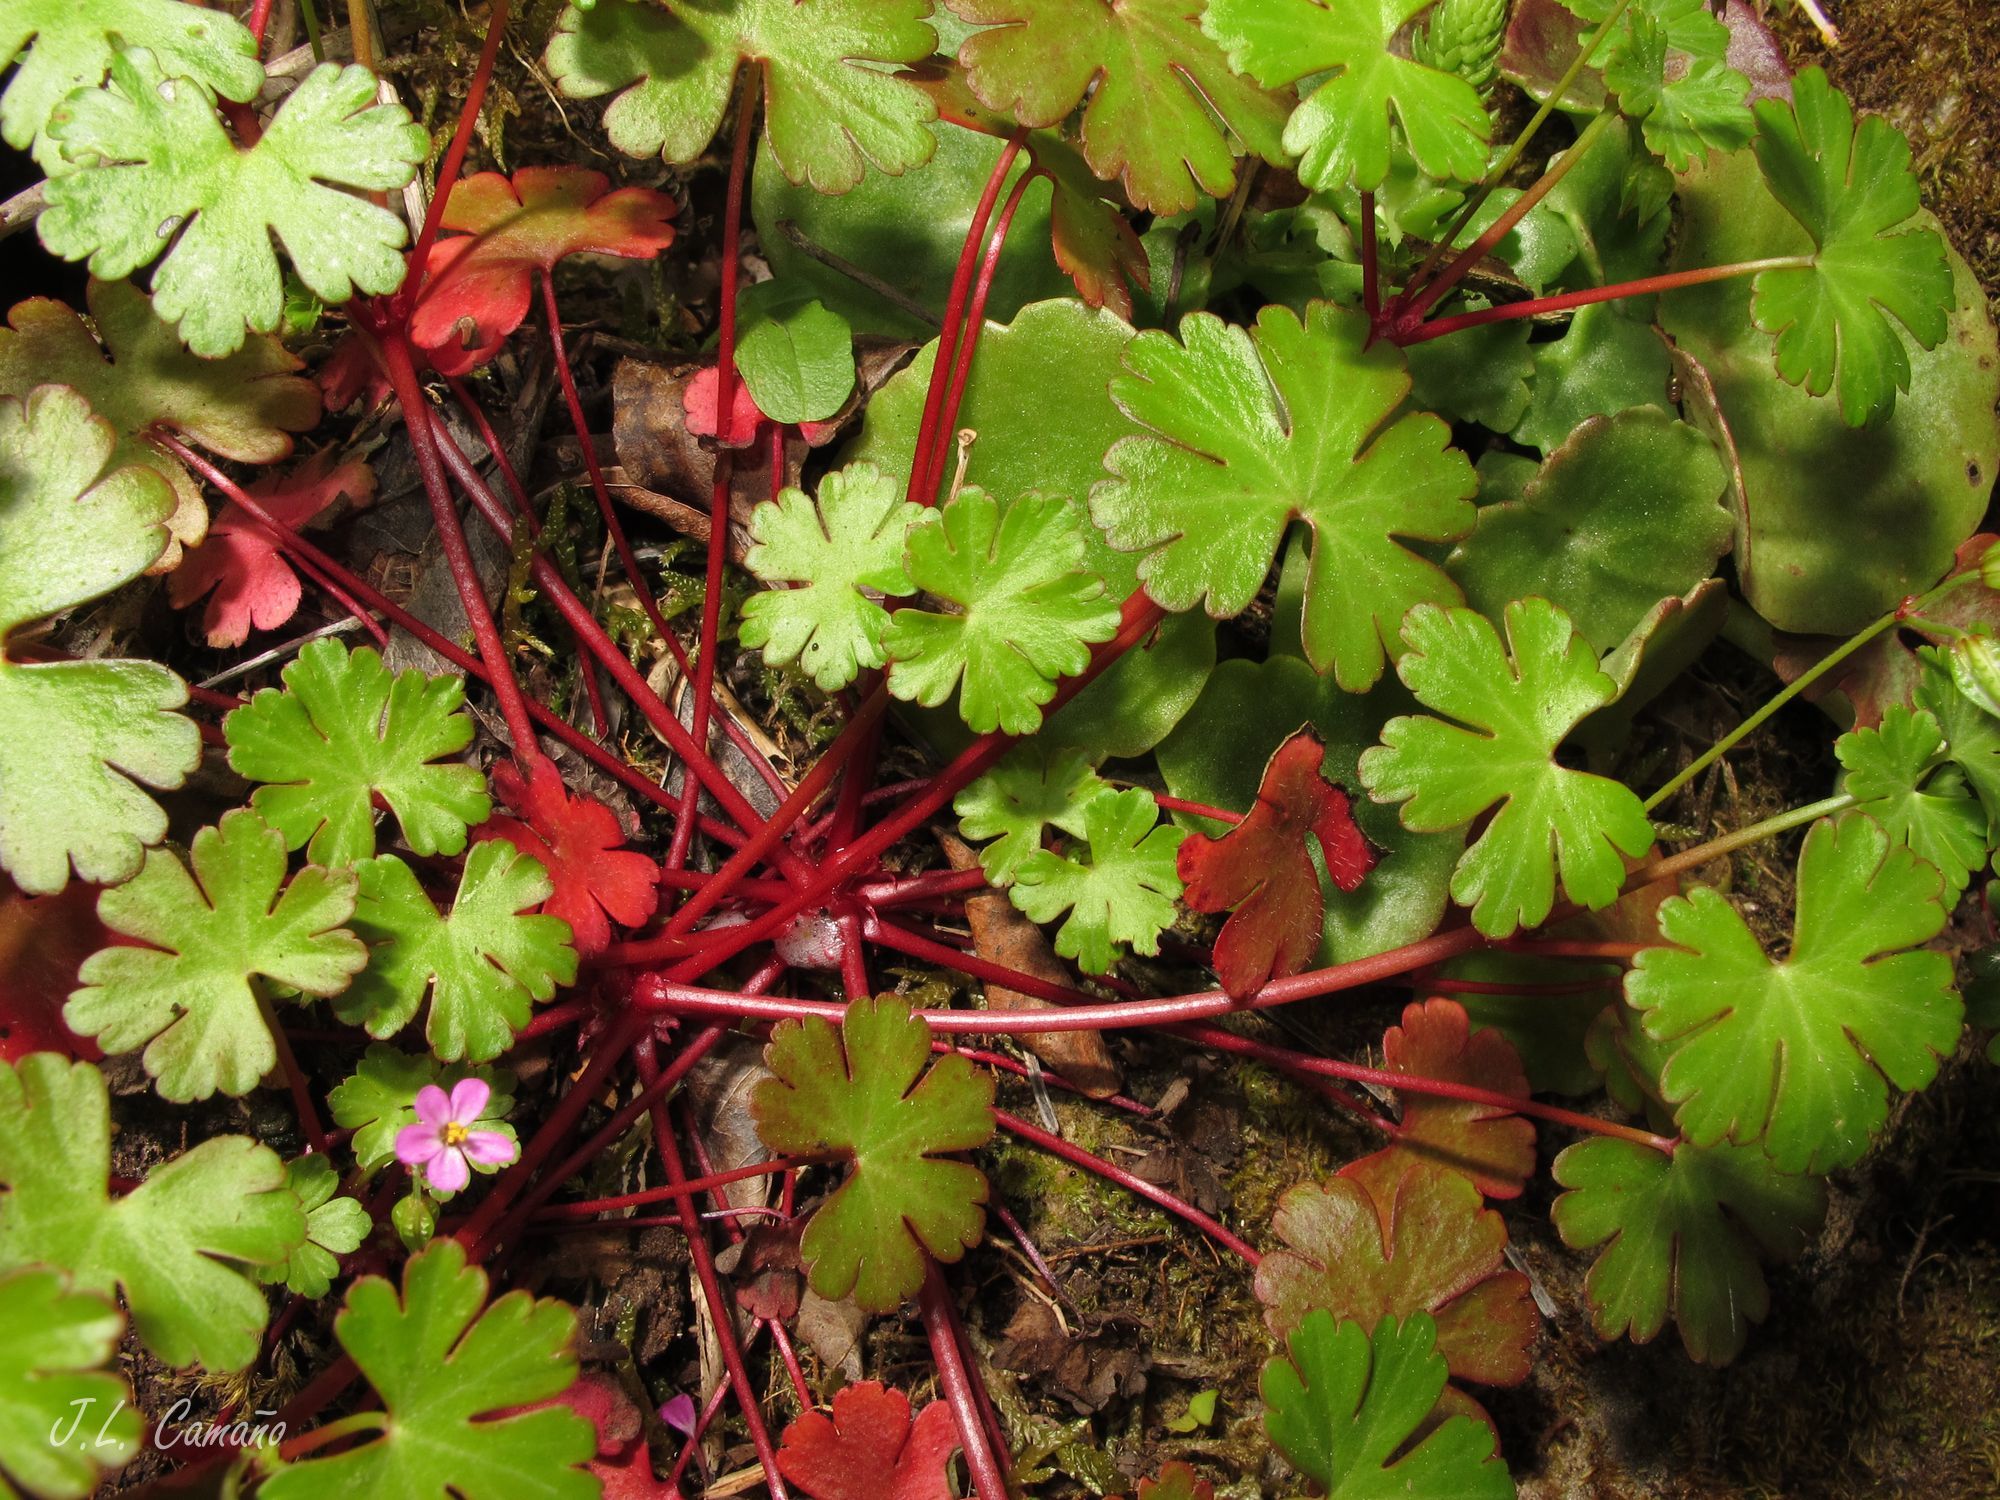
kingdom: Plantae
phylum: Tracheophyta
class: Magnoliopsida
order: Geraniales
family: Geraniaceae
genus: Geranium
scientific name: Geranium lucidum
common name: Shining crane's-bill
